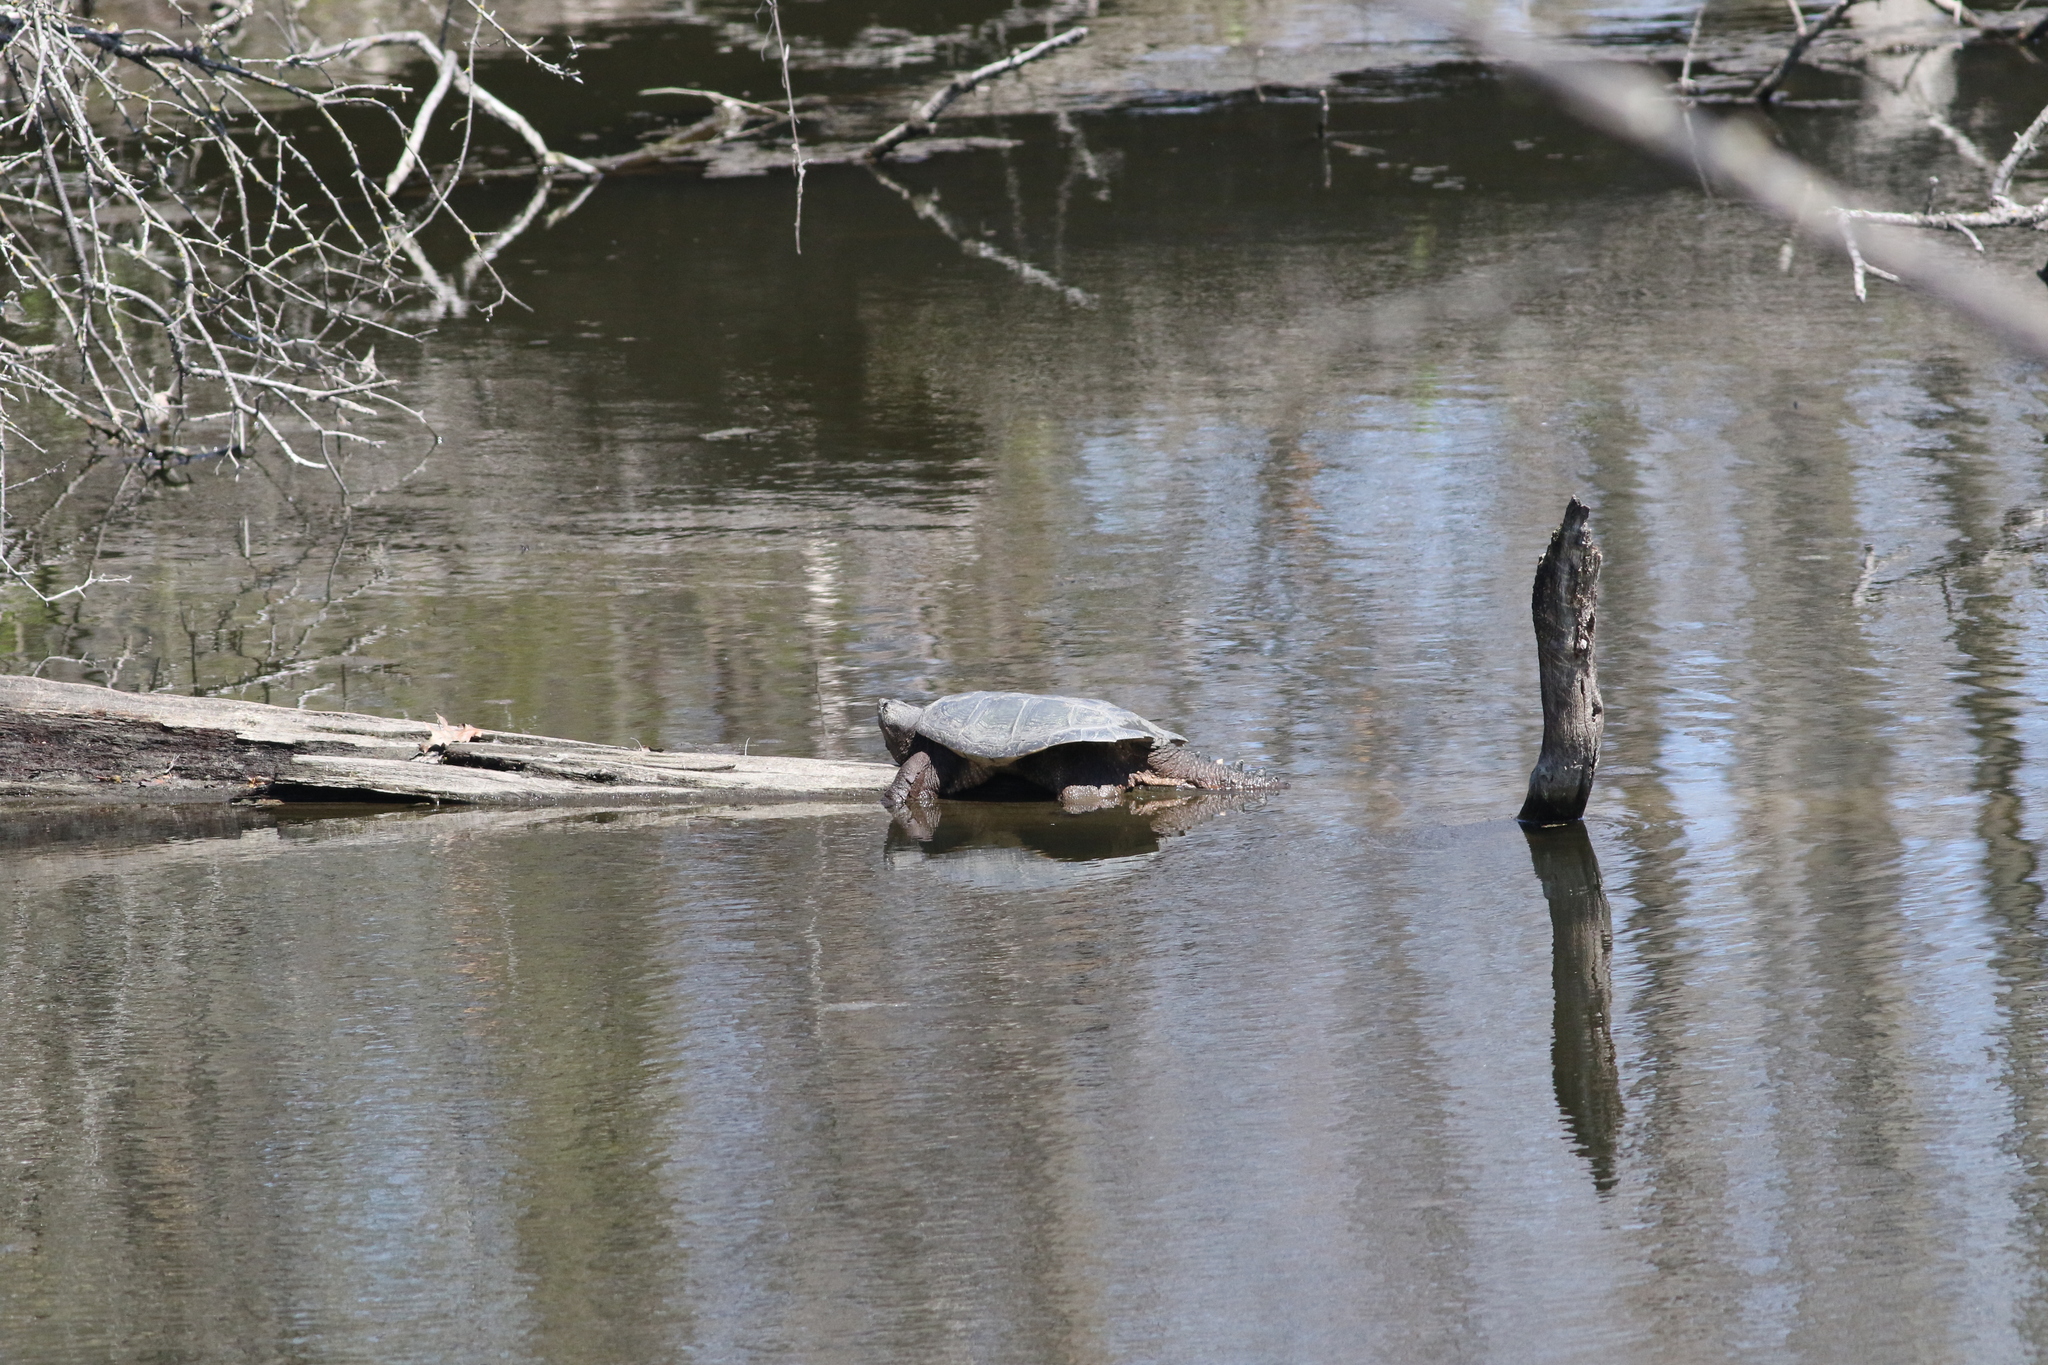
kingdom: Animalia
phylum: Chordata
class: Testudines
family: Chelydridae
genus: Chelydra
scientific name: Chelydra serpentina
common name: Common snapping turtle
